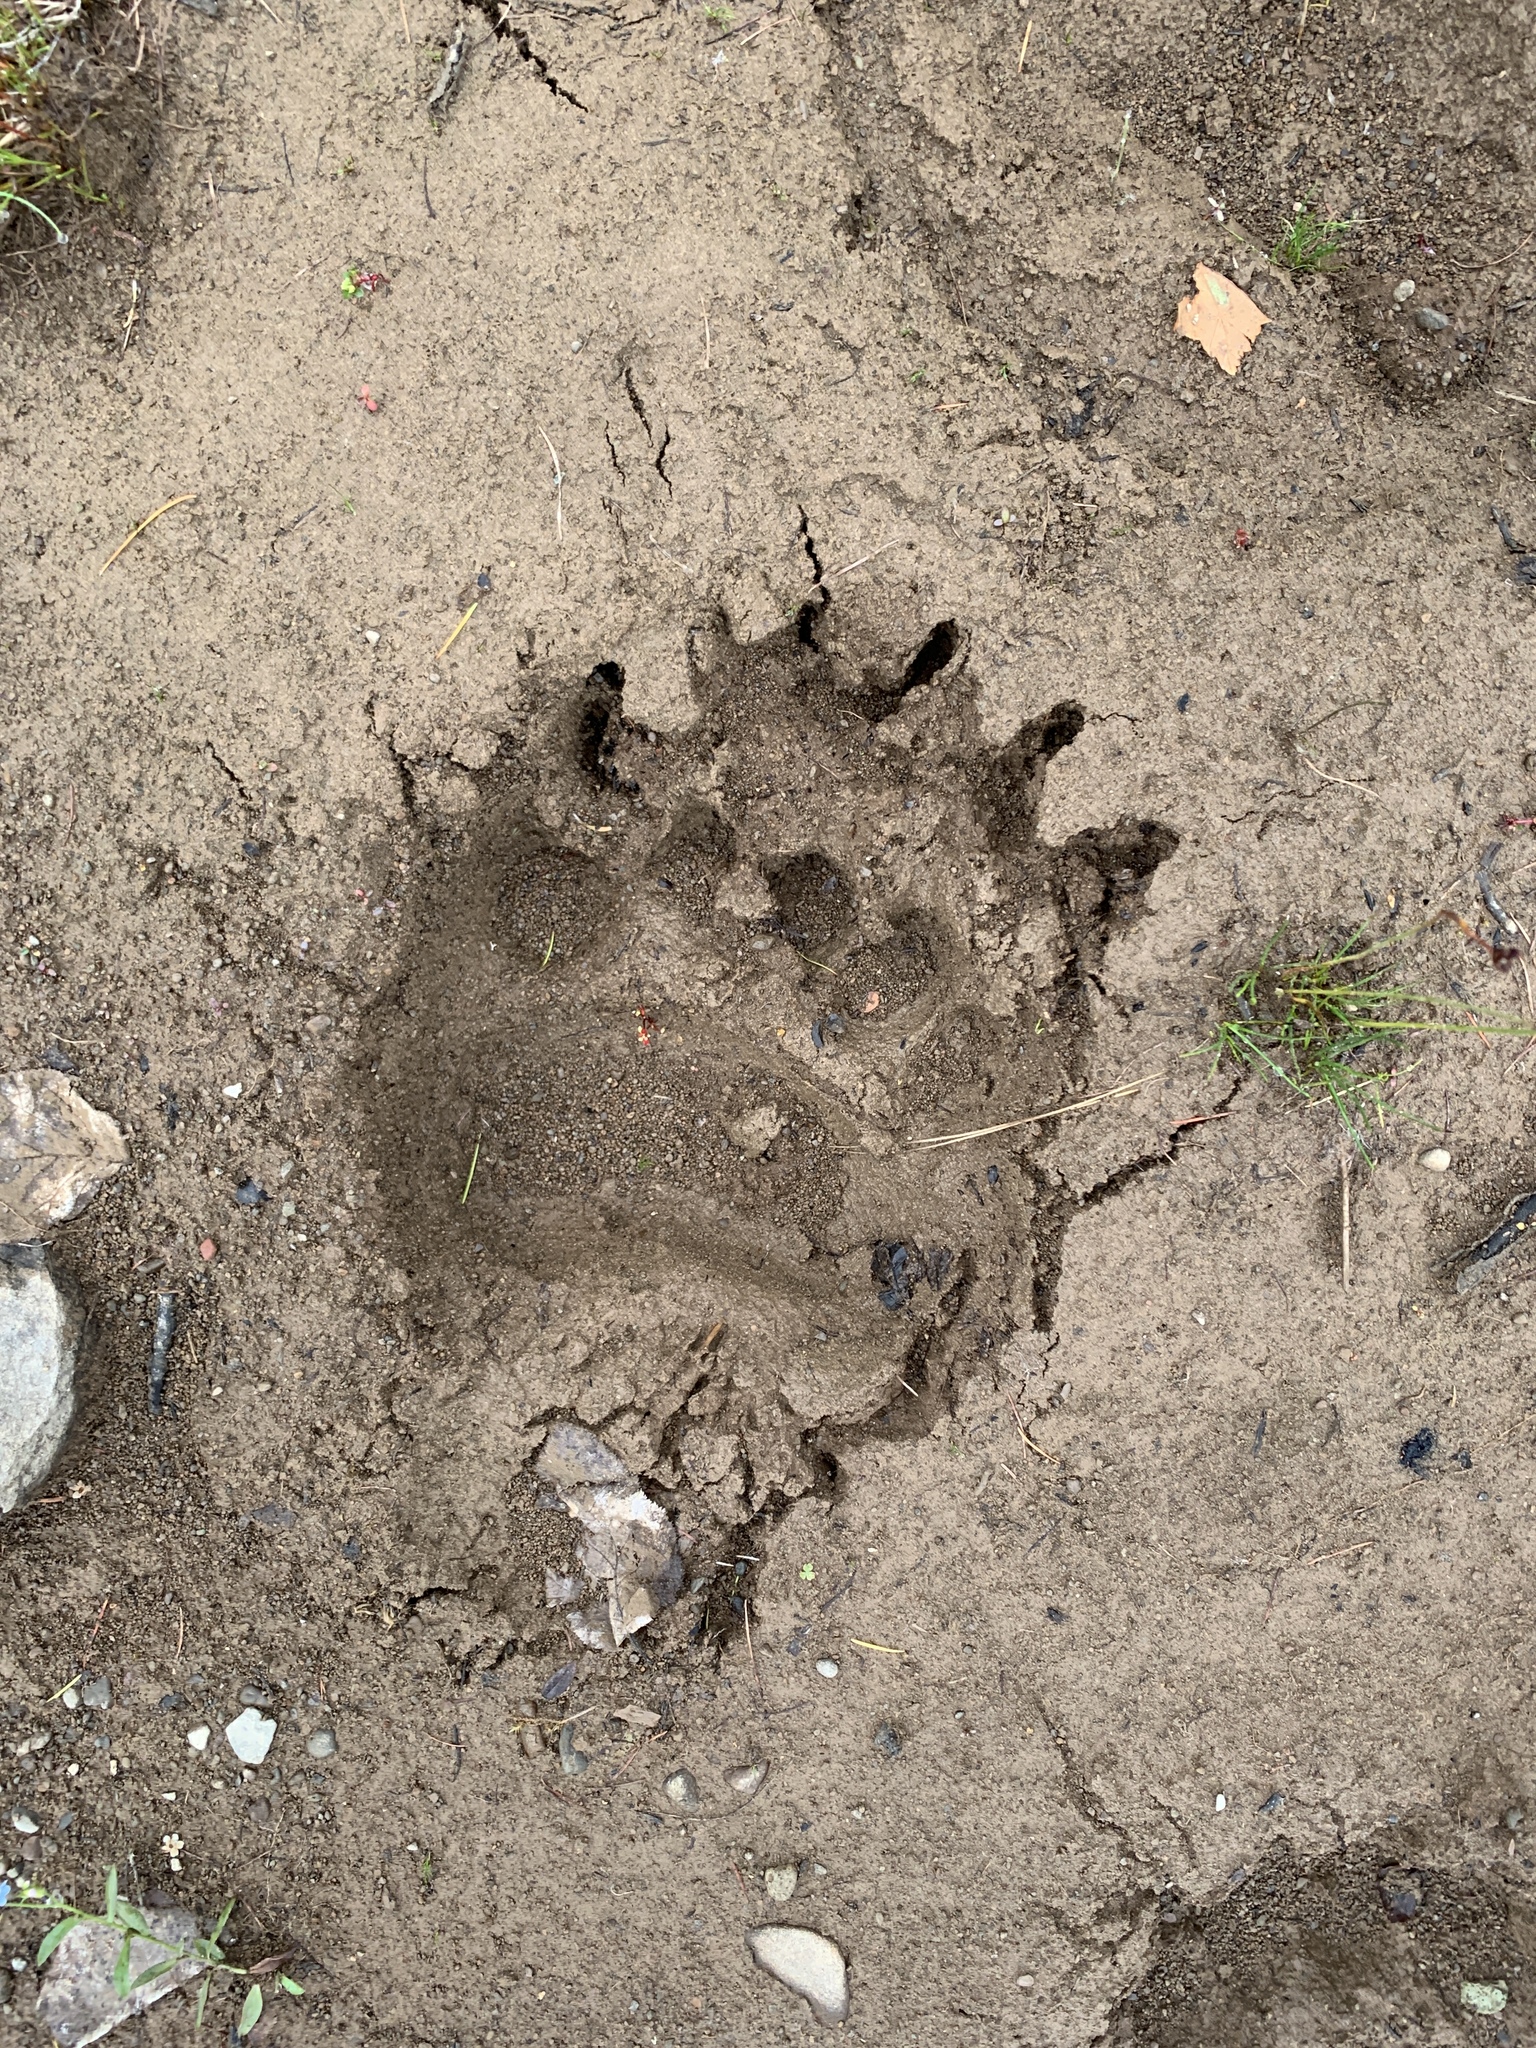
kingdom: Animalia
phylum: Chordata
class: Mammalia
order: Carnivora
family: Ursidae
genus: Ursus
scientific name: Ursus arctos
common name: Brown bear
